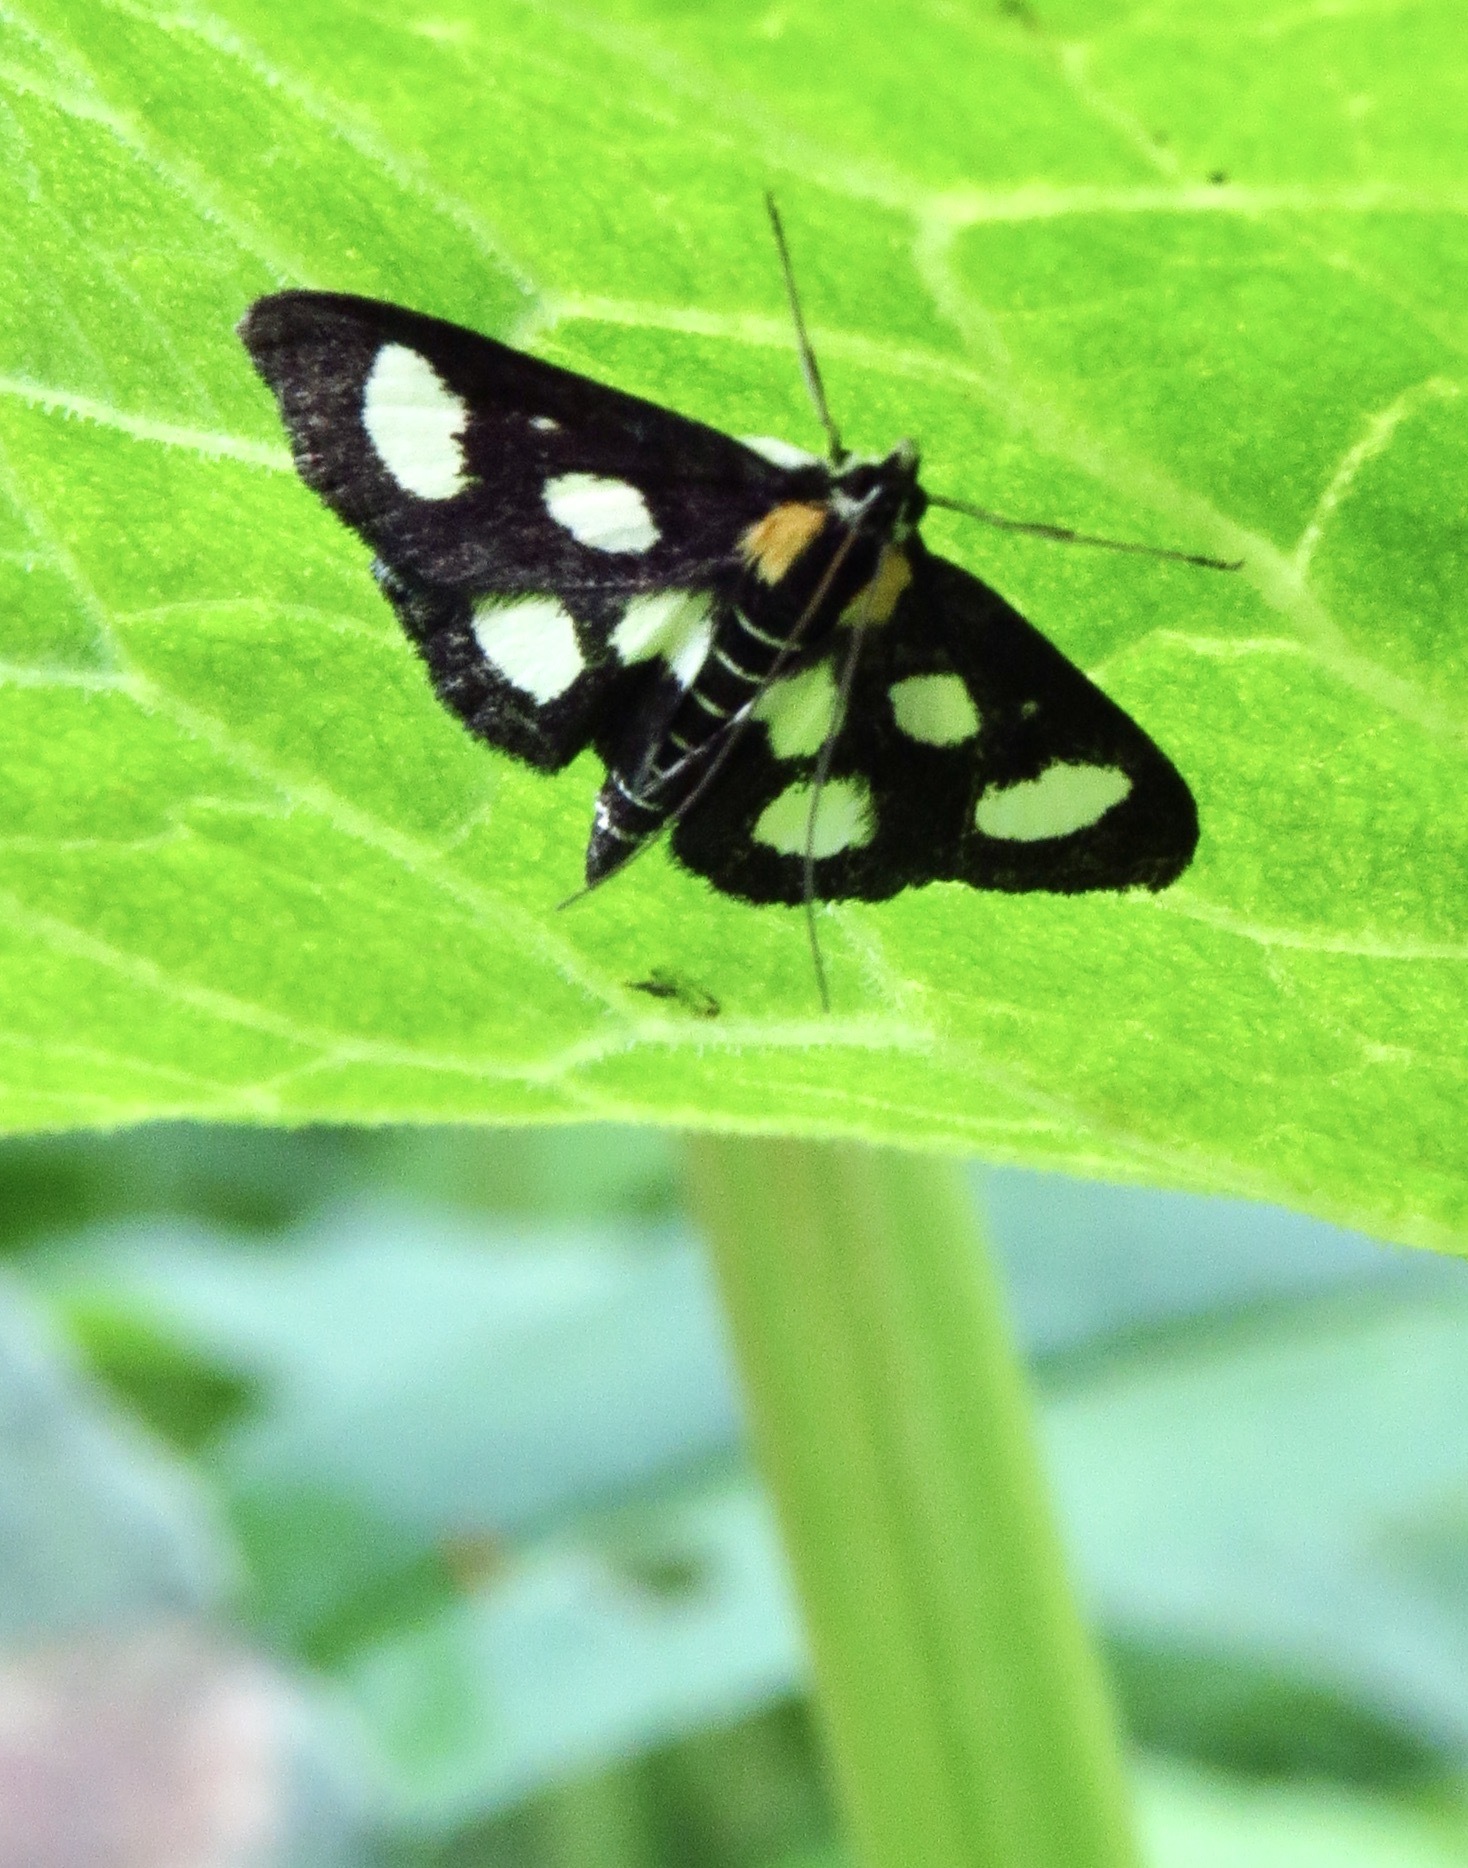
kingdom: Animalia
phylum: Arthropoda
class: Insecta
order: Lepidoptera
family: Crambidae
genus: Anania
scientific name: Anania funebris
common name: White-spotted sable moth
